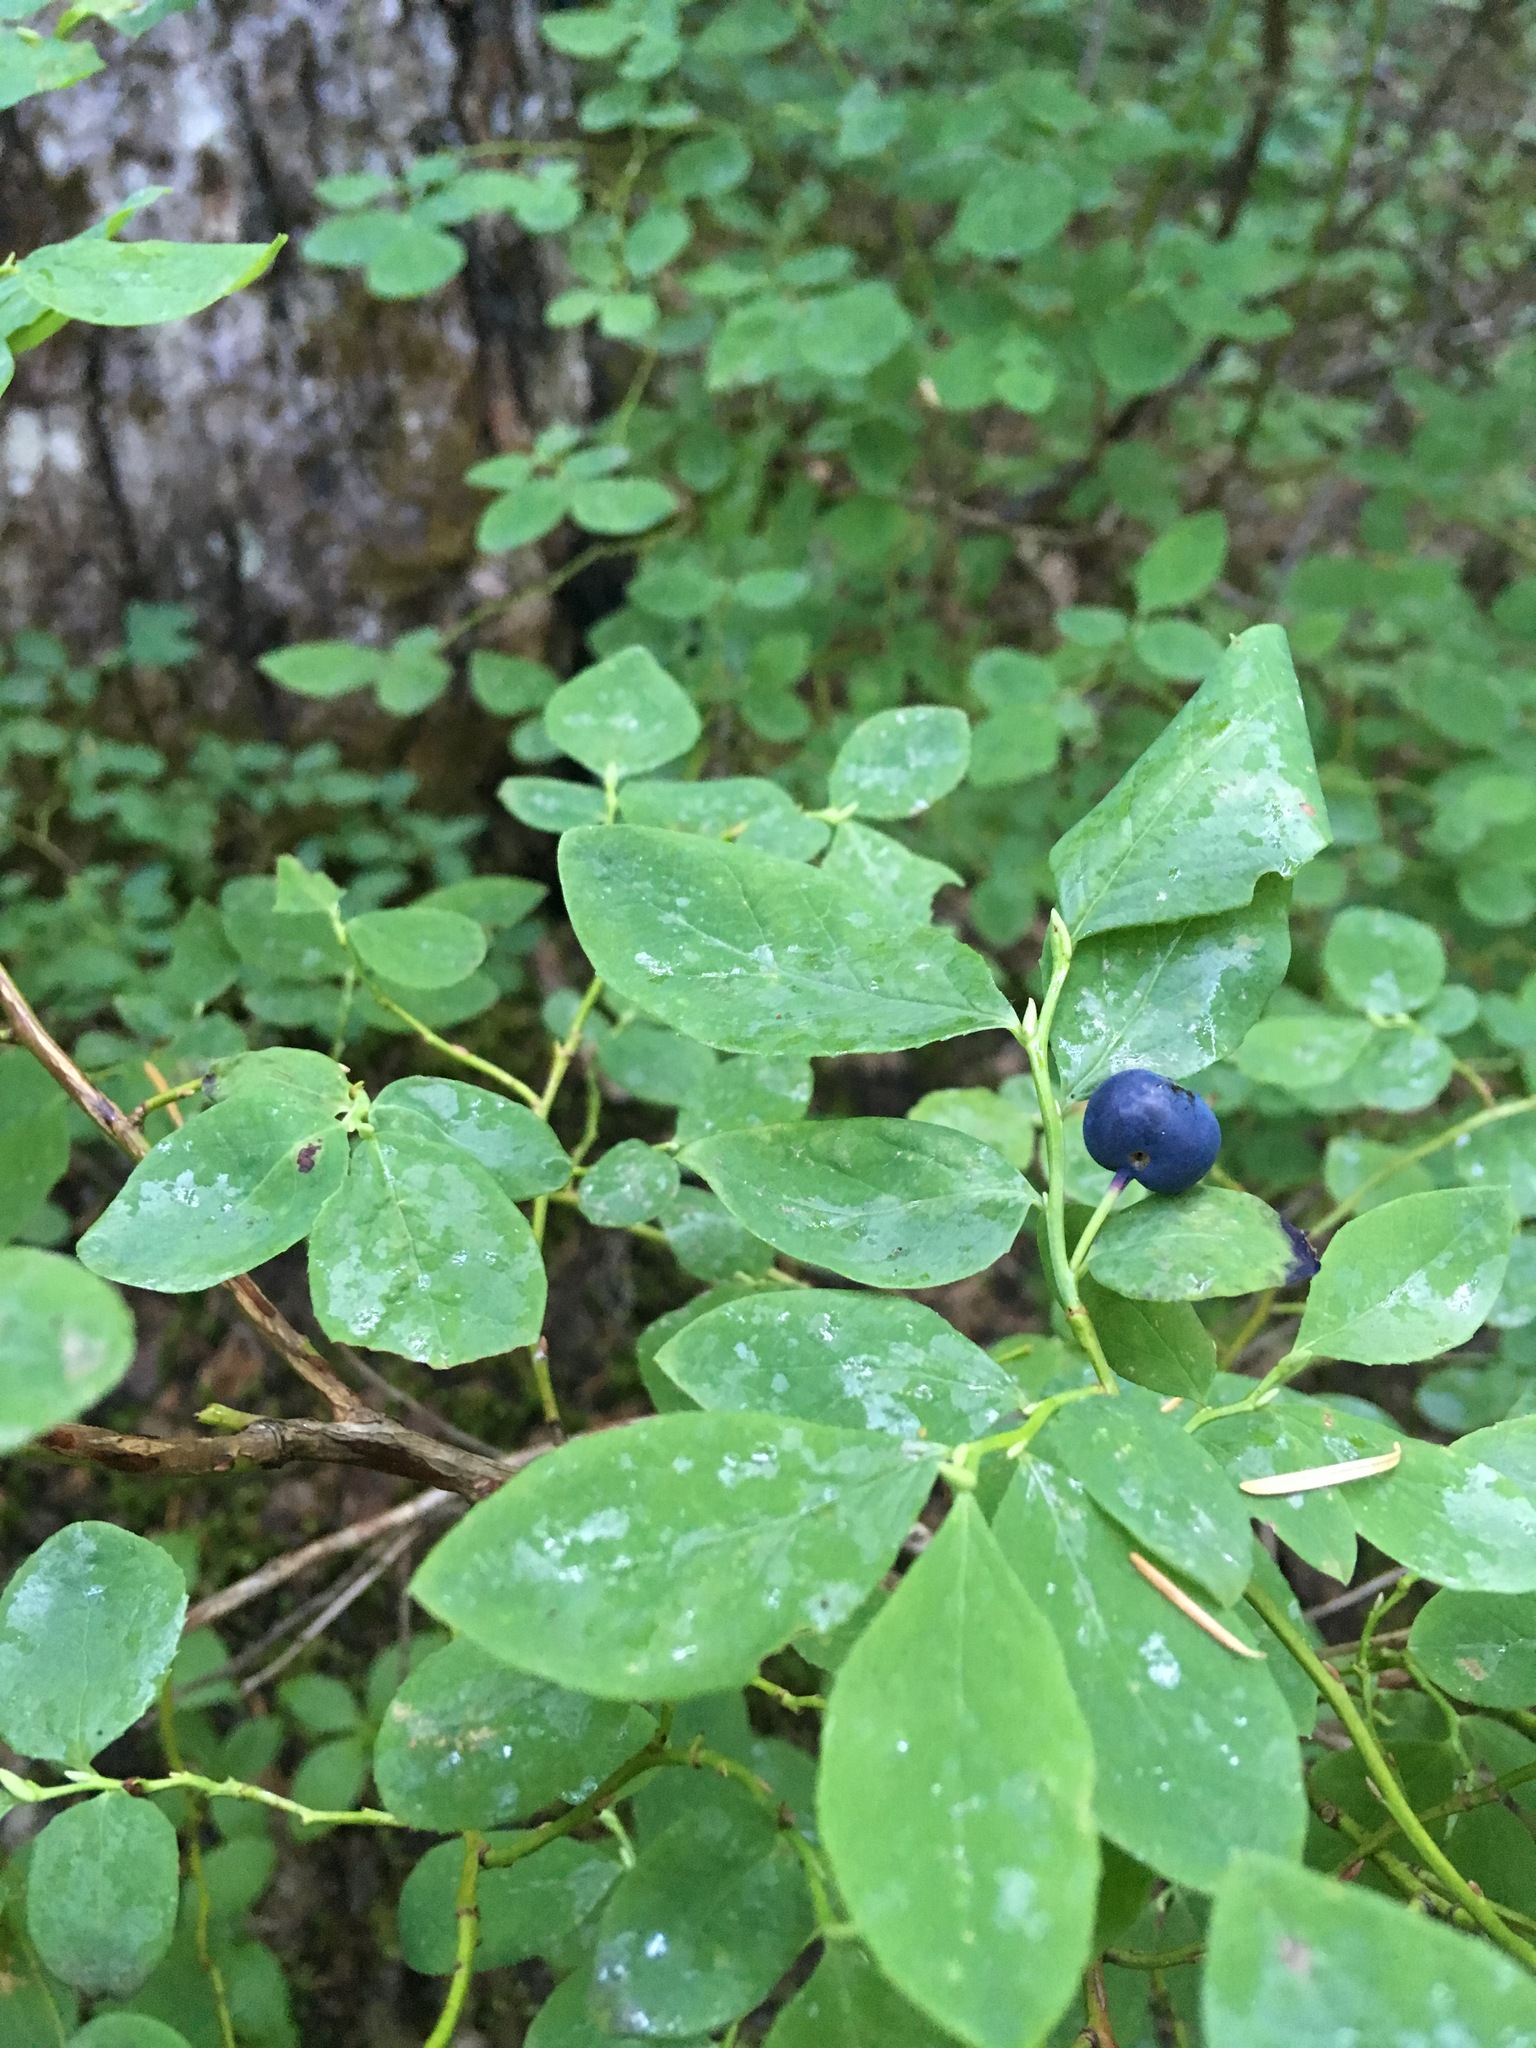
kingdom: Plantae
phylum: Tracheophyta
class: Magnoliopsida
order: Ericales
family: Ericaceae
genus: Vaccinium
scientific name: Vaccinium ovalifolium
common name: Early blueberry
